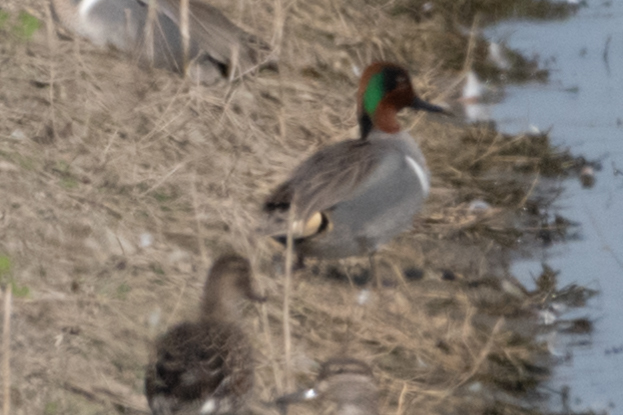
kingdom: Animalia
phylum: Chordata
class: Aves
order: Anseriformes
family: Anatidae
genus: Anas
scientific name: Anas crecca
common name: Eurasian teal
